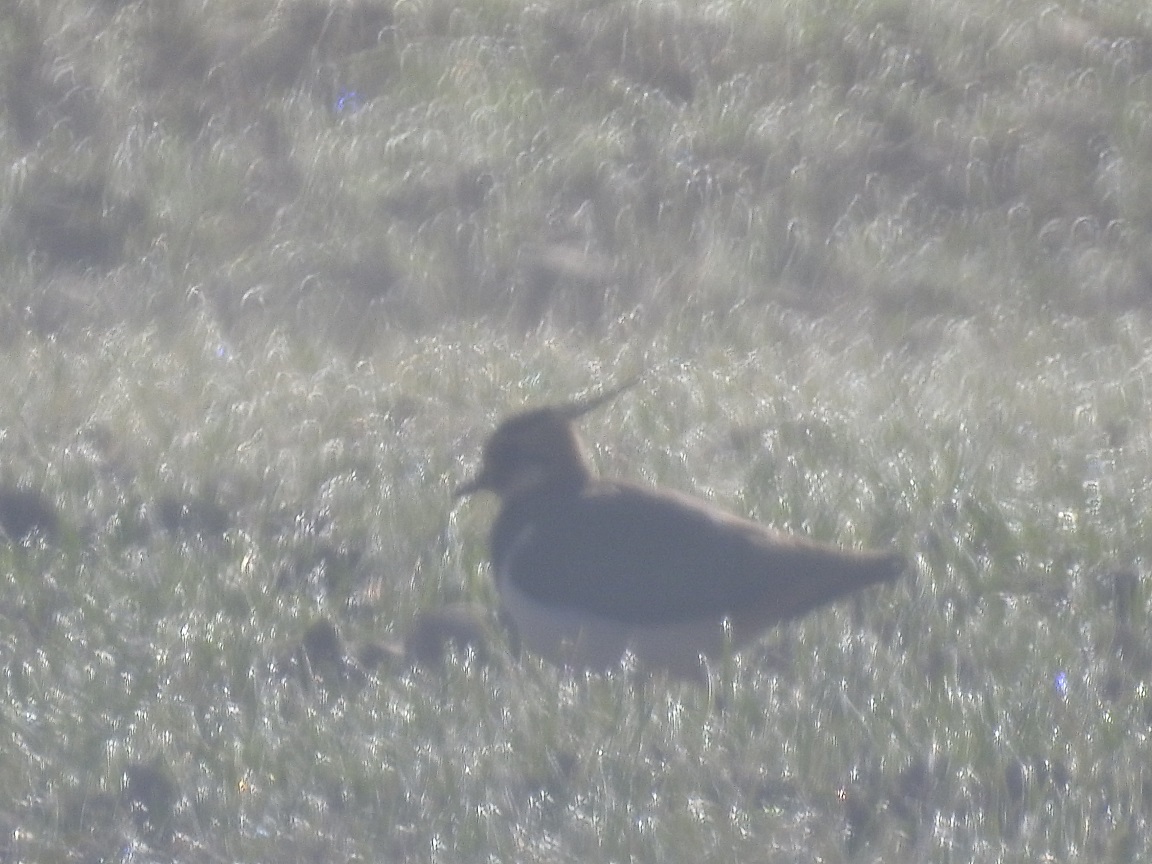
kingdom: Animalia
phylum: Chordata
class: Aves
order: Charadriiformes
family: Charadriidae
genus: Vanellus
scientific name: Vanellus vanellus
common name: Northern lapwing
